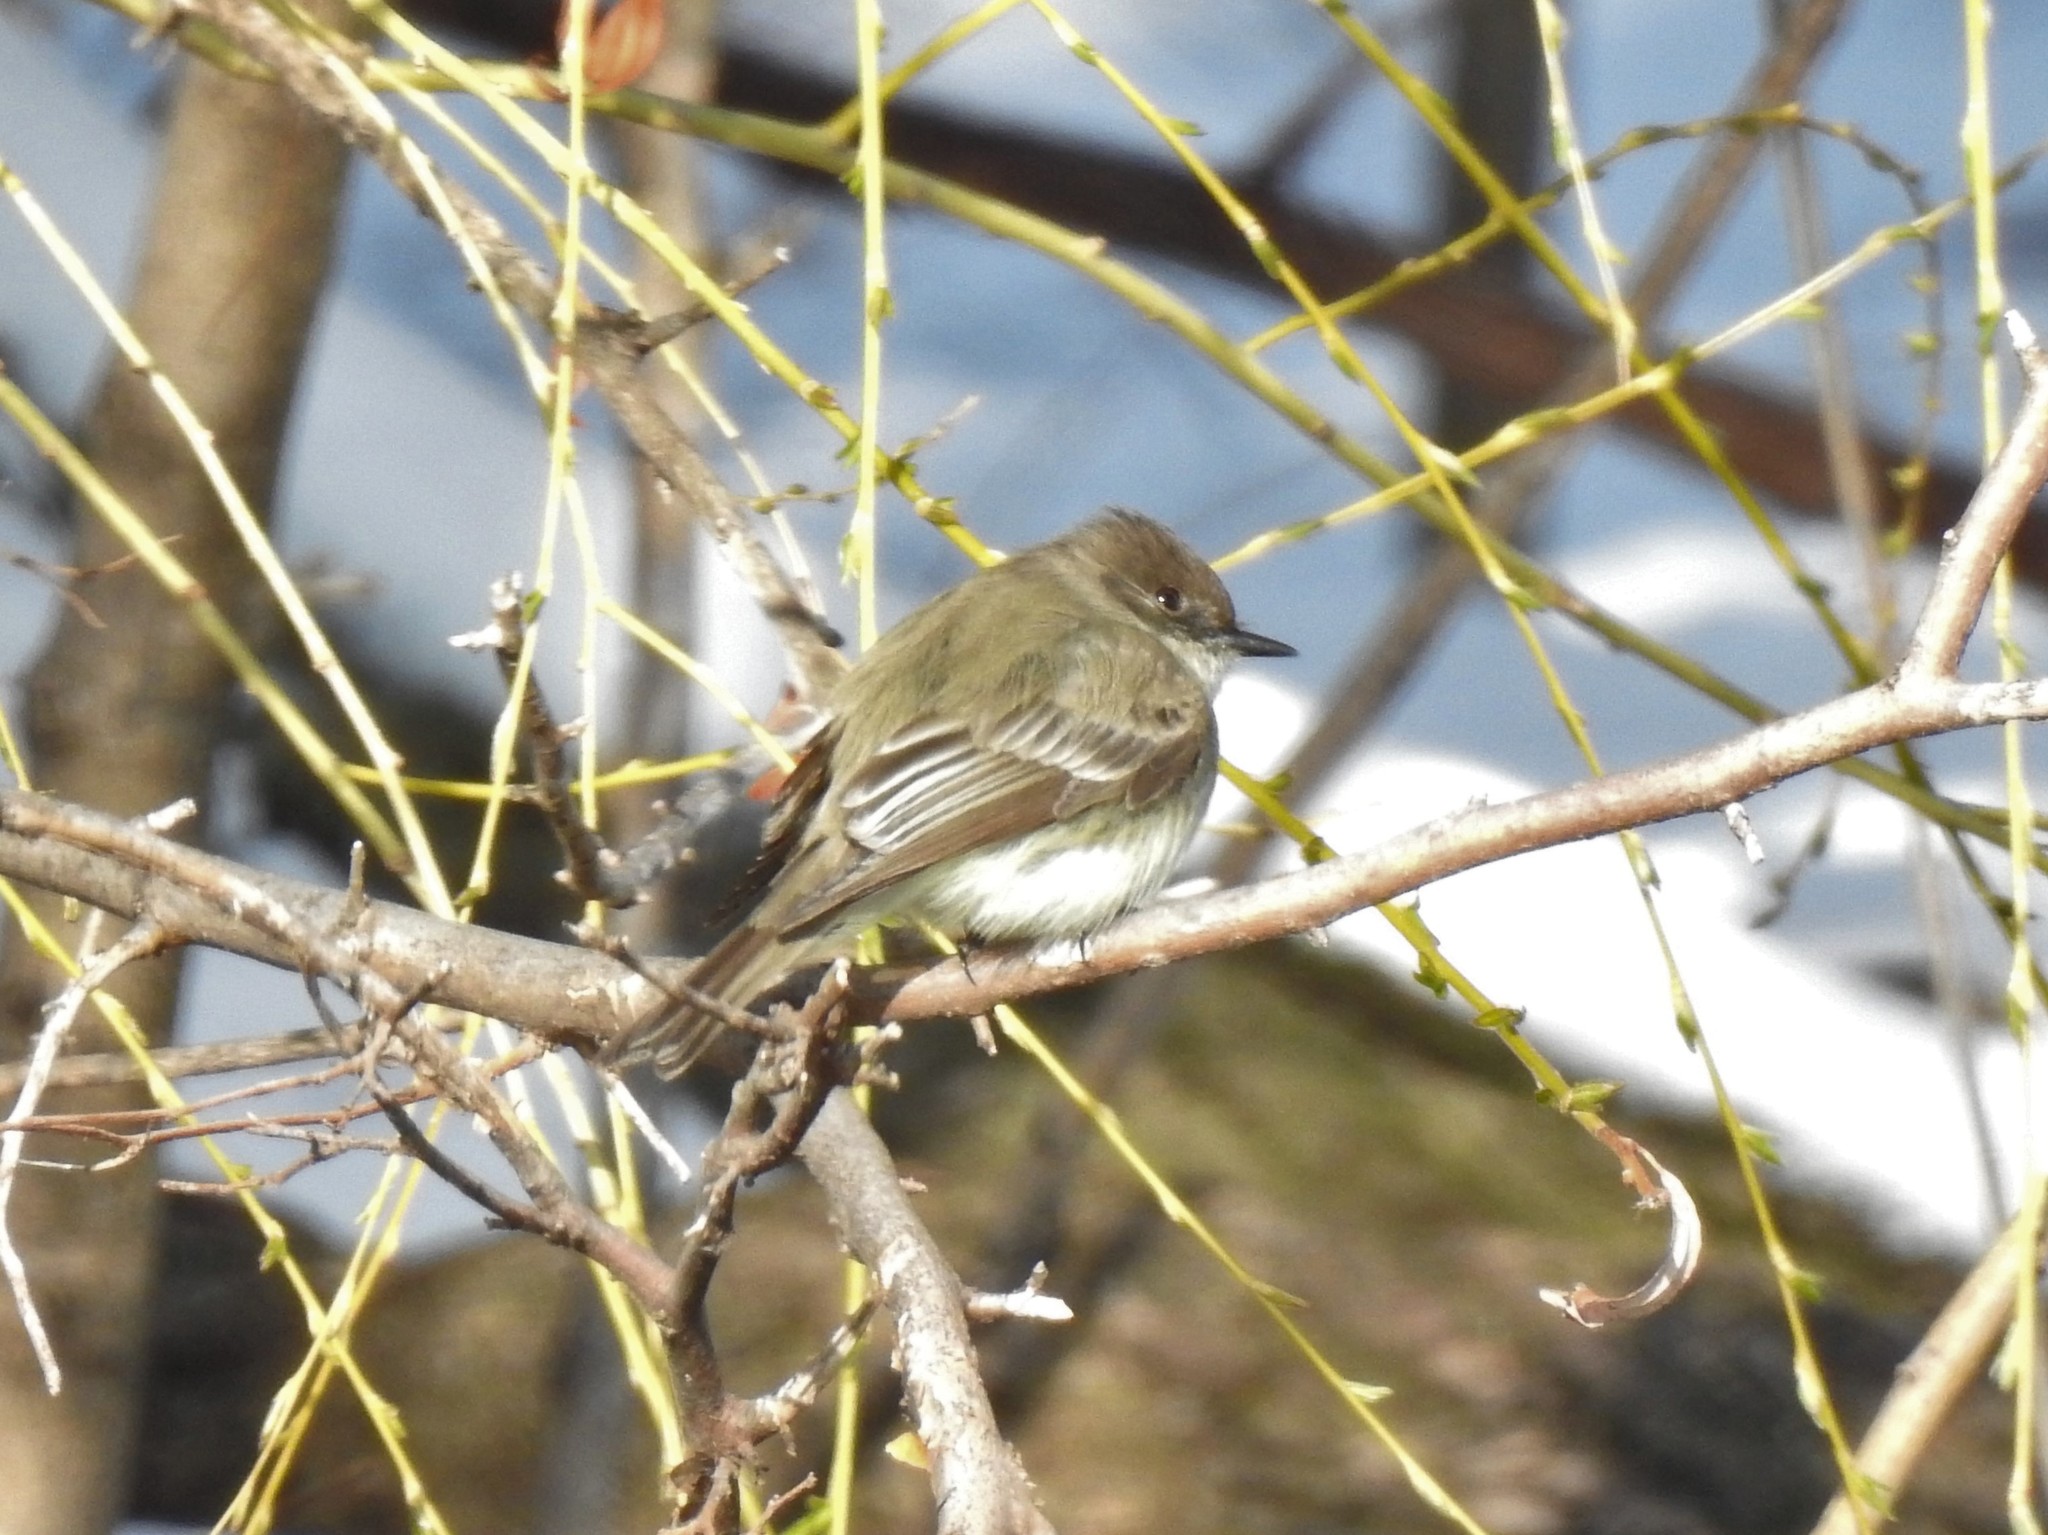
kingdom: Animalia
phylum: Chordata
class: Aves
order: Passeriformes
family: Tyrannidae
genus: Sayornis
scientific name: Sayornis phoebe
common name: Eastern phoebe
